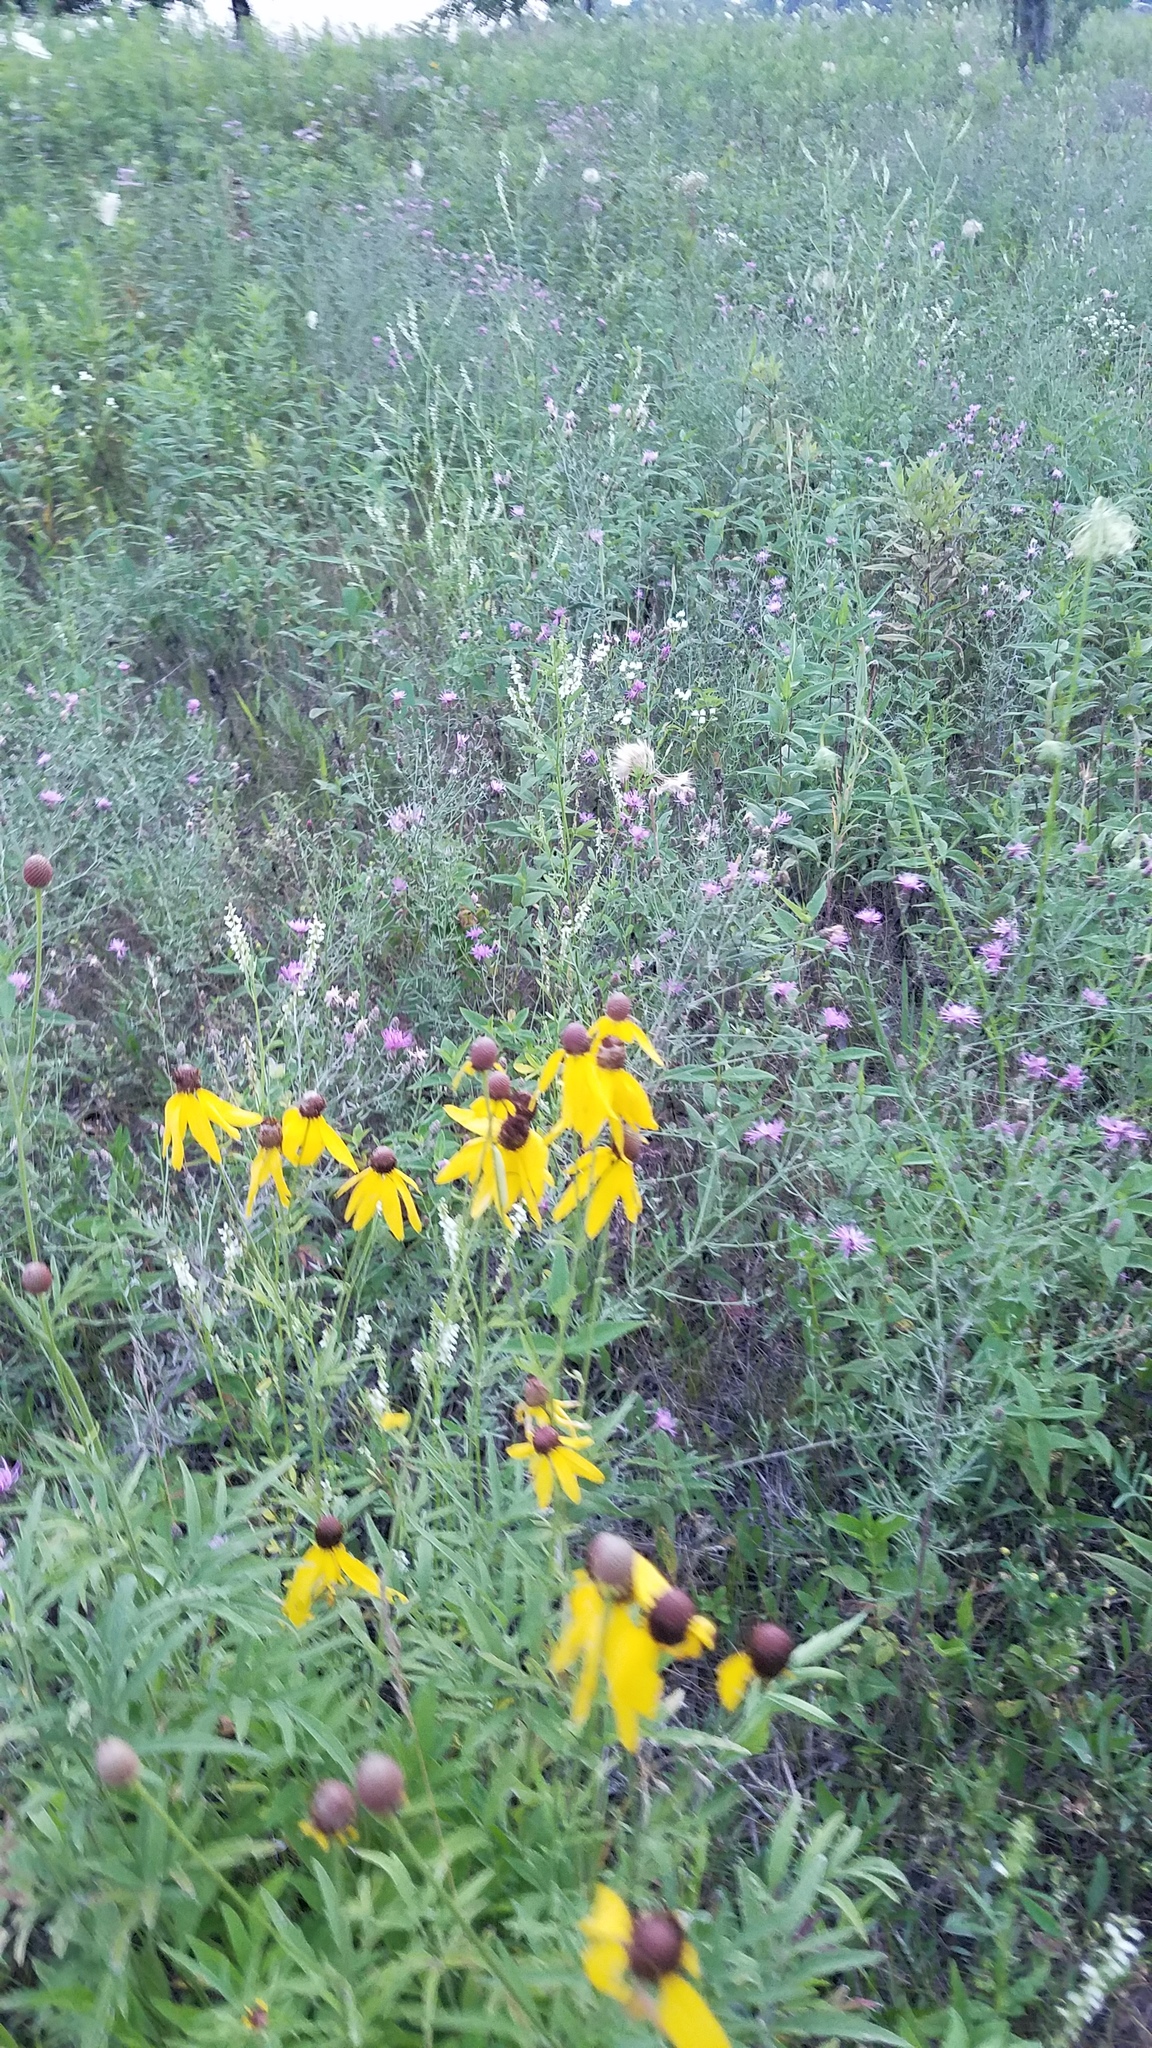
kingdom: Plantae
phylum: Tracheophyta
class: Magnoliopsida
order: Asterales
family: Asteraceae
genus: Ratibida
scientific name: Ratibida pinnata
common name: Drooping prairie-coneflower
